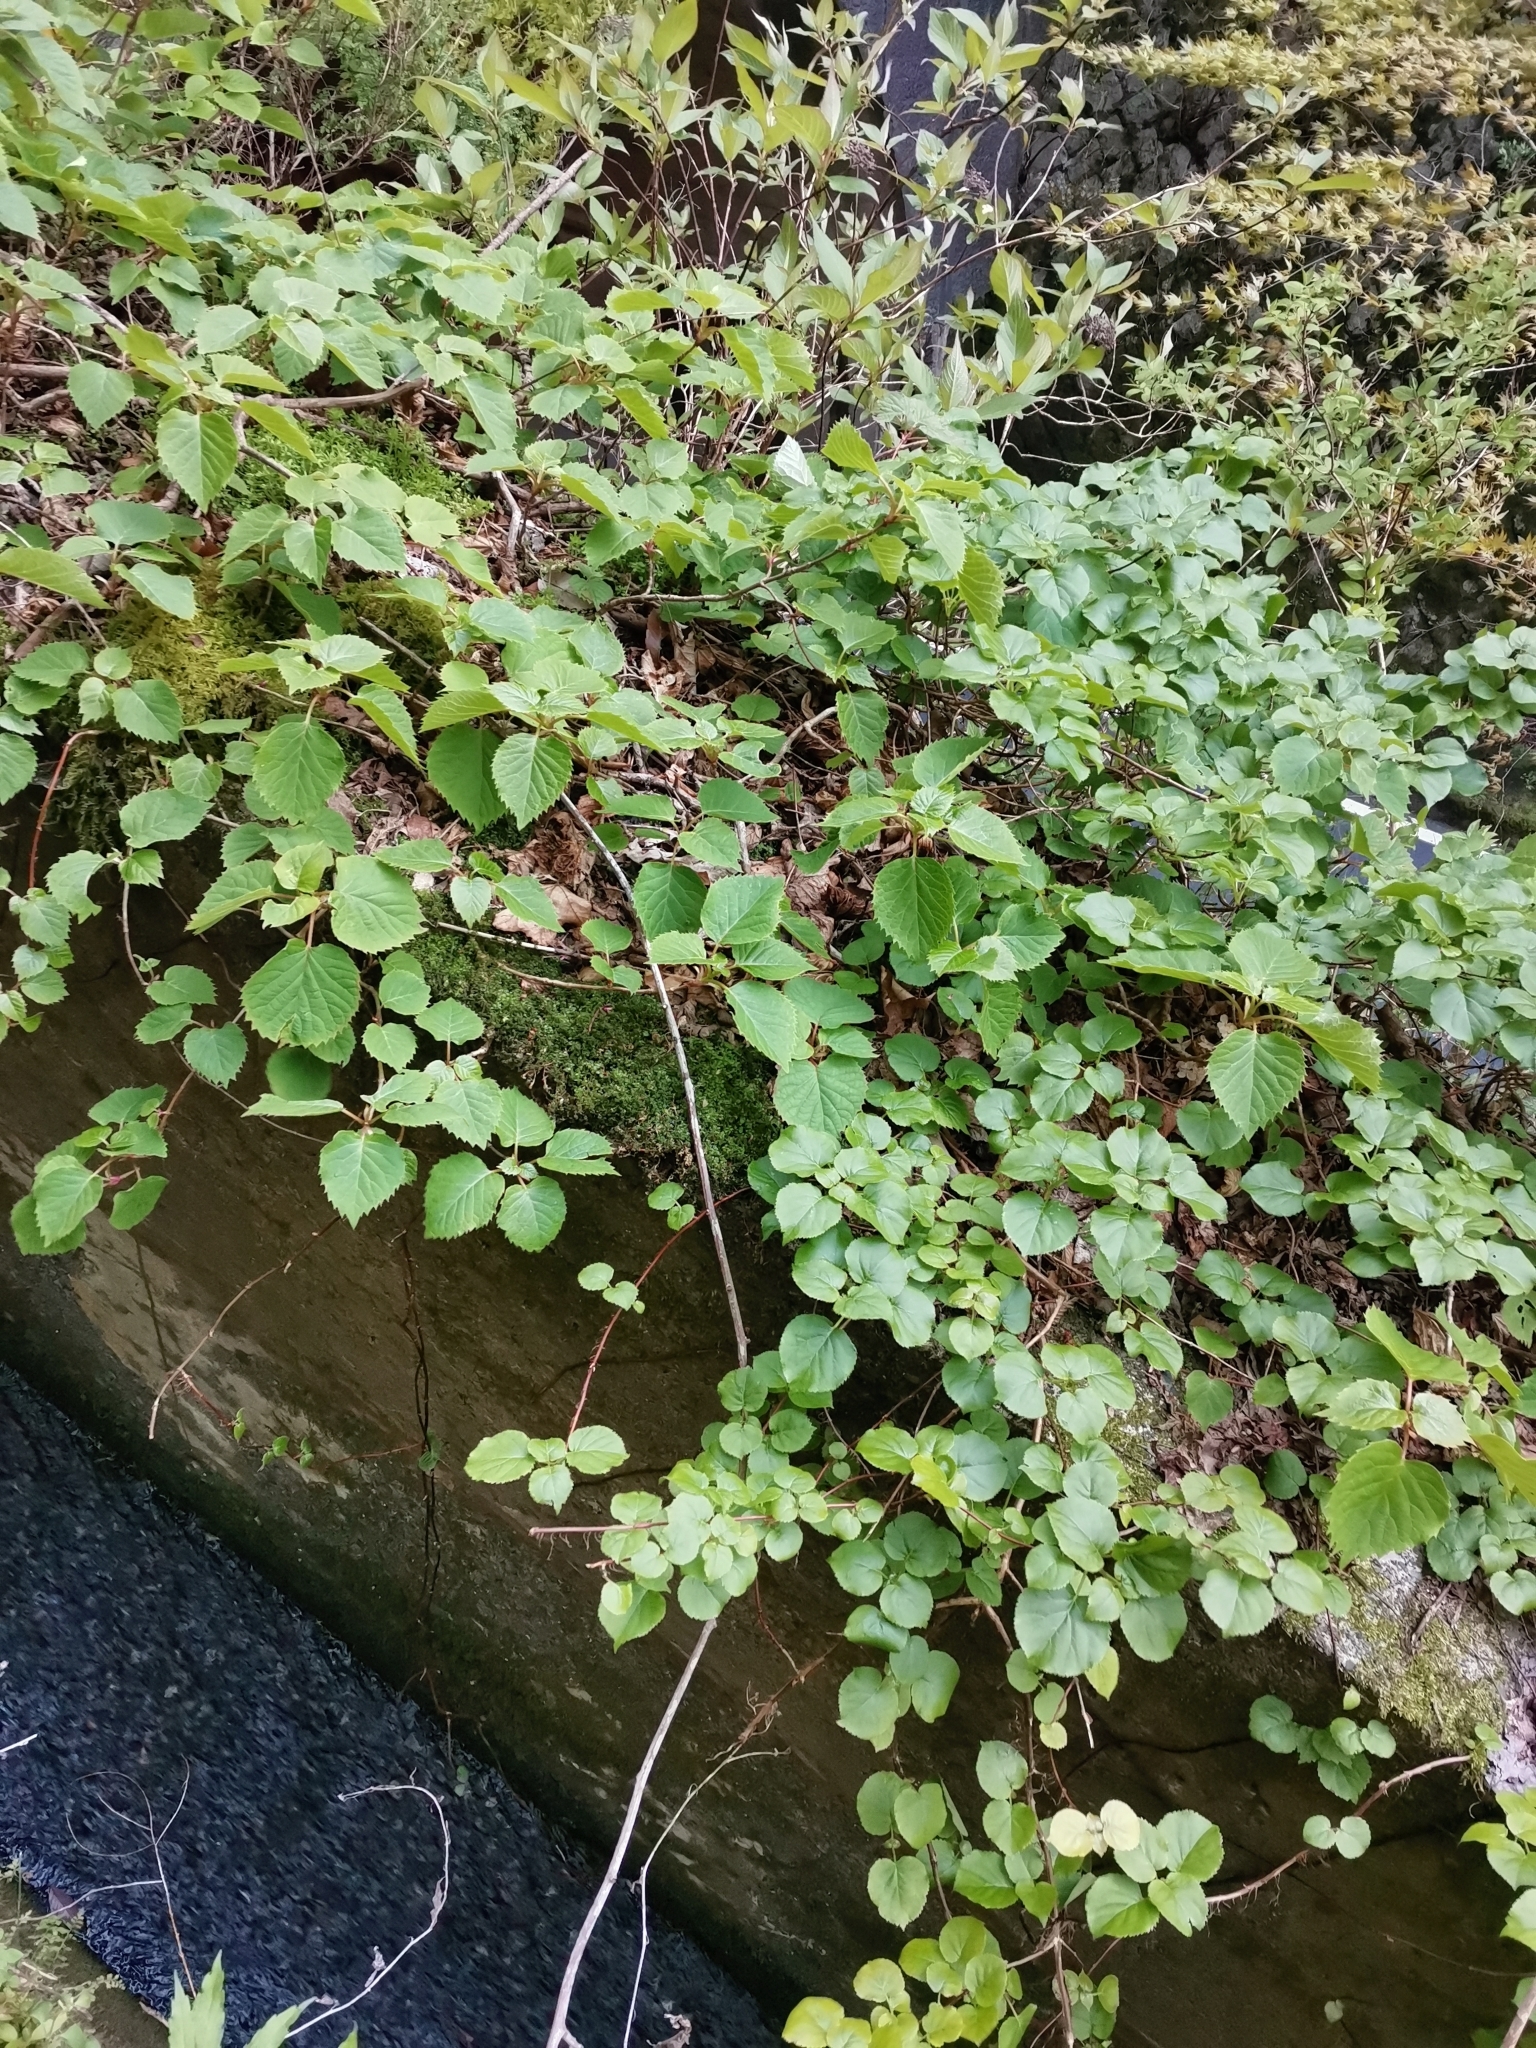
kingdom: Plantae
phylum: Tracheophyta
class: Magnoliopsida
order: Cornales
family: Hydrangeaceae
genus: Hydrangea
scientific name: Hydrangea hydrangeoides
